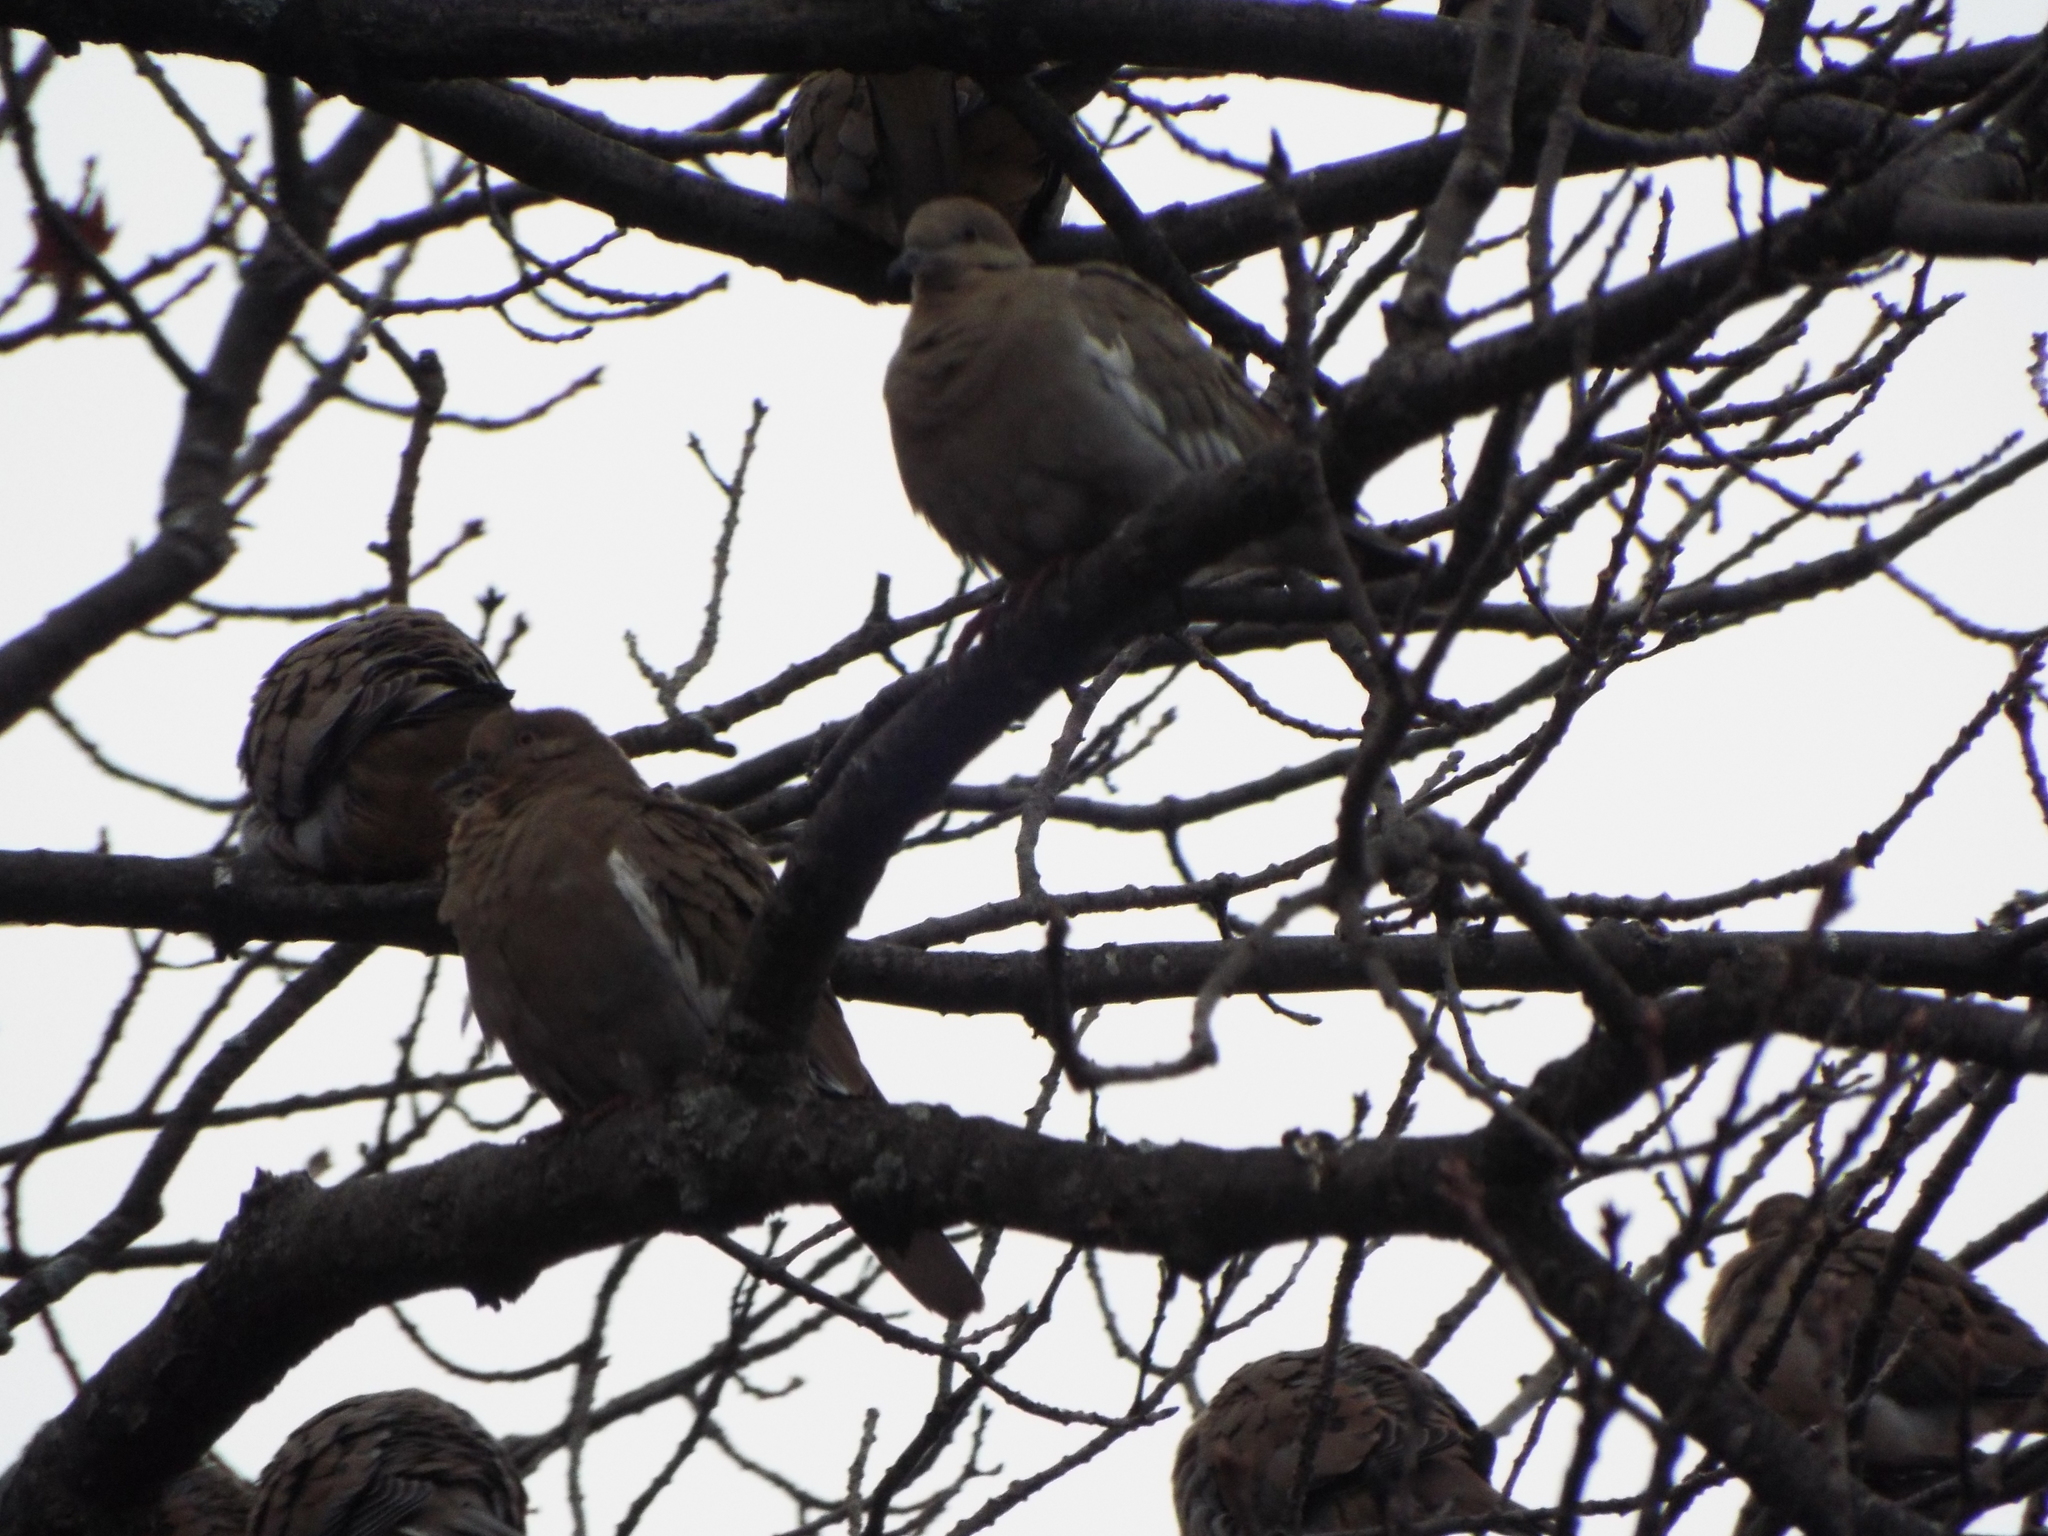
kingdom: Animalia
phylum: Chordata
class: Aves
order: Columbiformes
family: Columbidae
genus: Zenaida
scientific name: Zenaida asiatica
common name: White-winged dove
